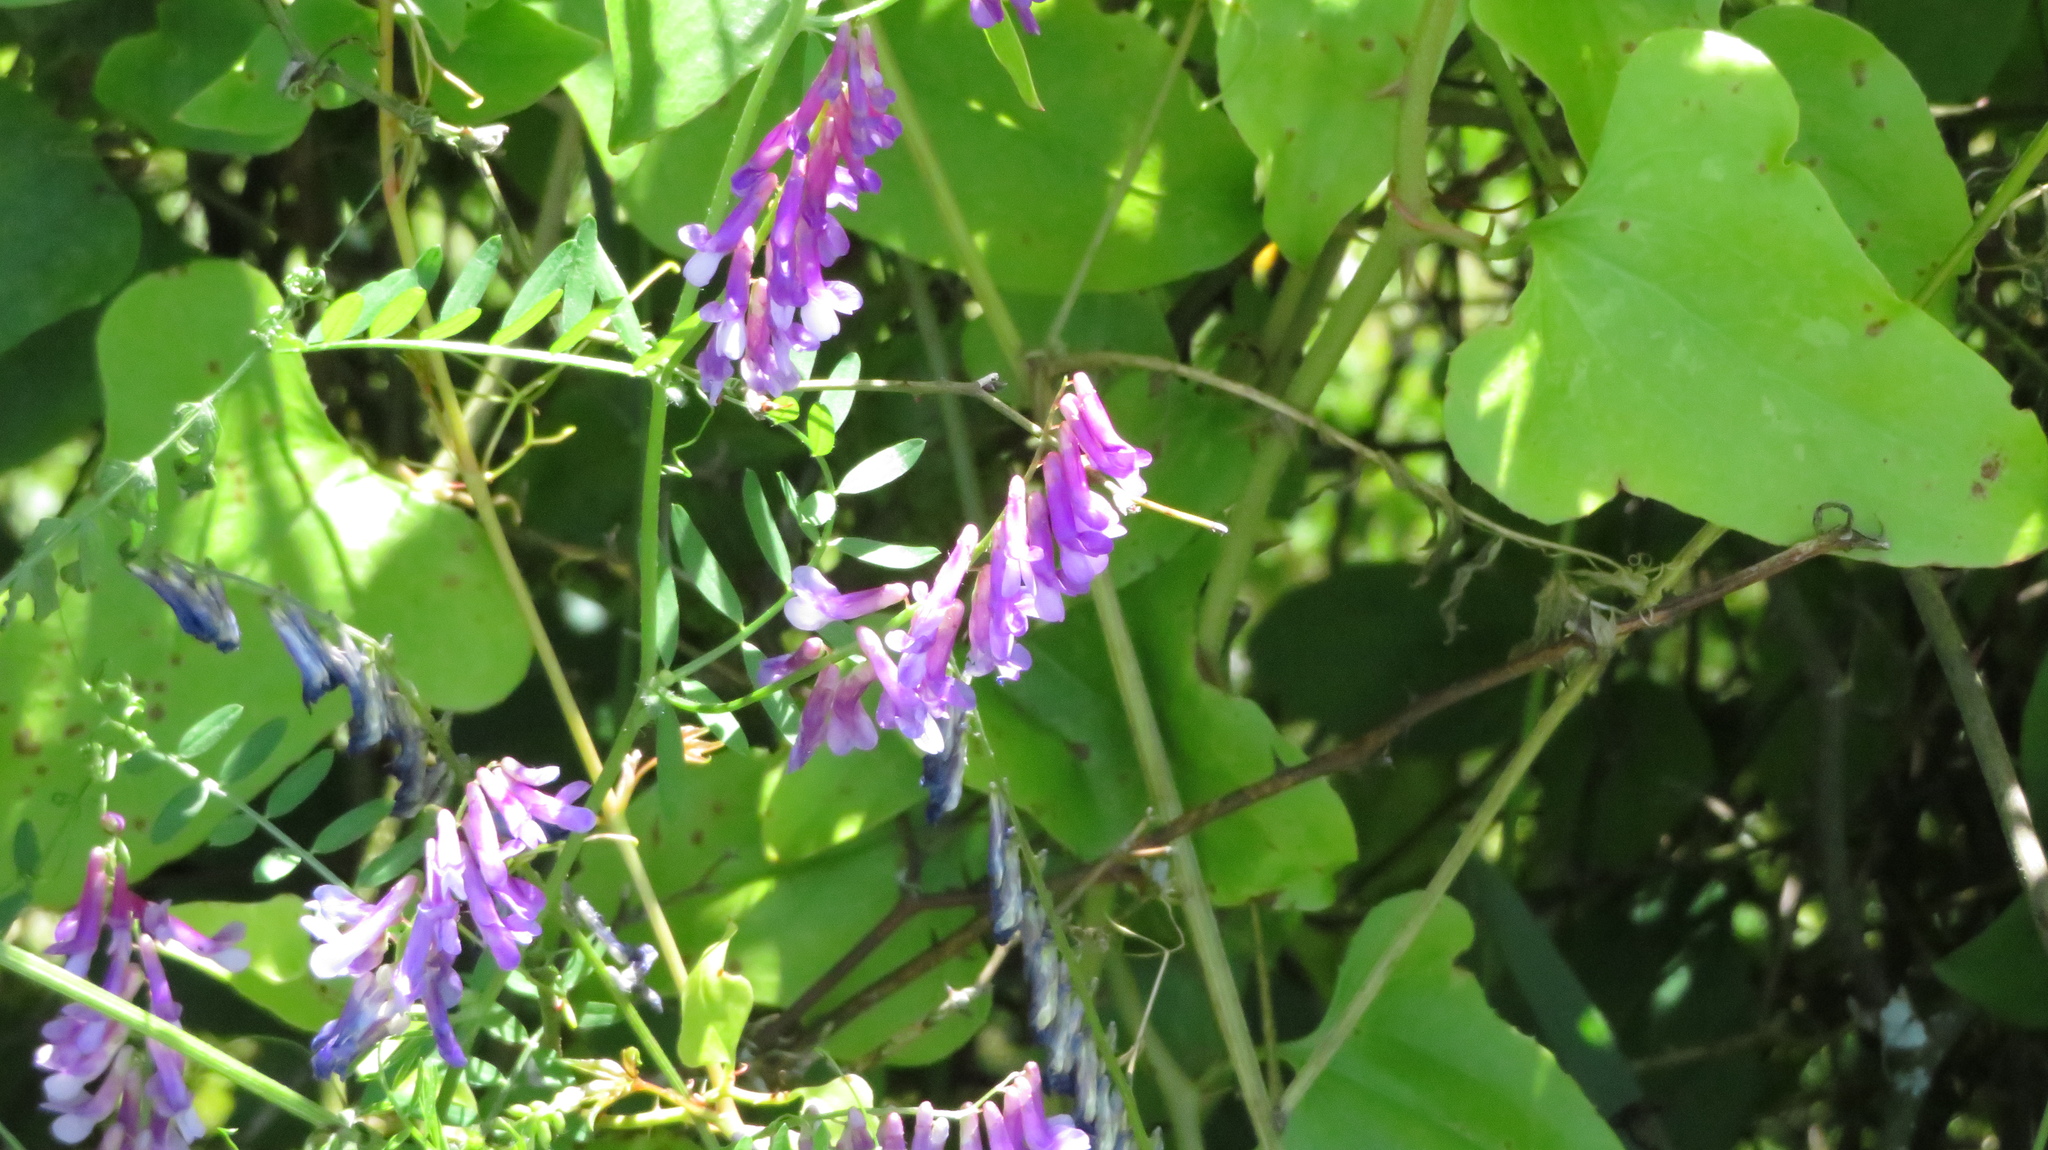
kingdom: Plantae
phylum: Tracheophyta
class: Magnoliopsida
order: Fabales
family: Fabaceae
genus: Vicia
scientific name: Vicia villosa
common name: Fodder vetch
